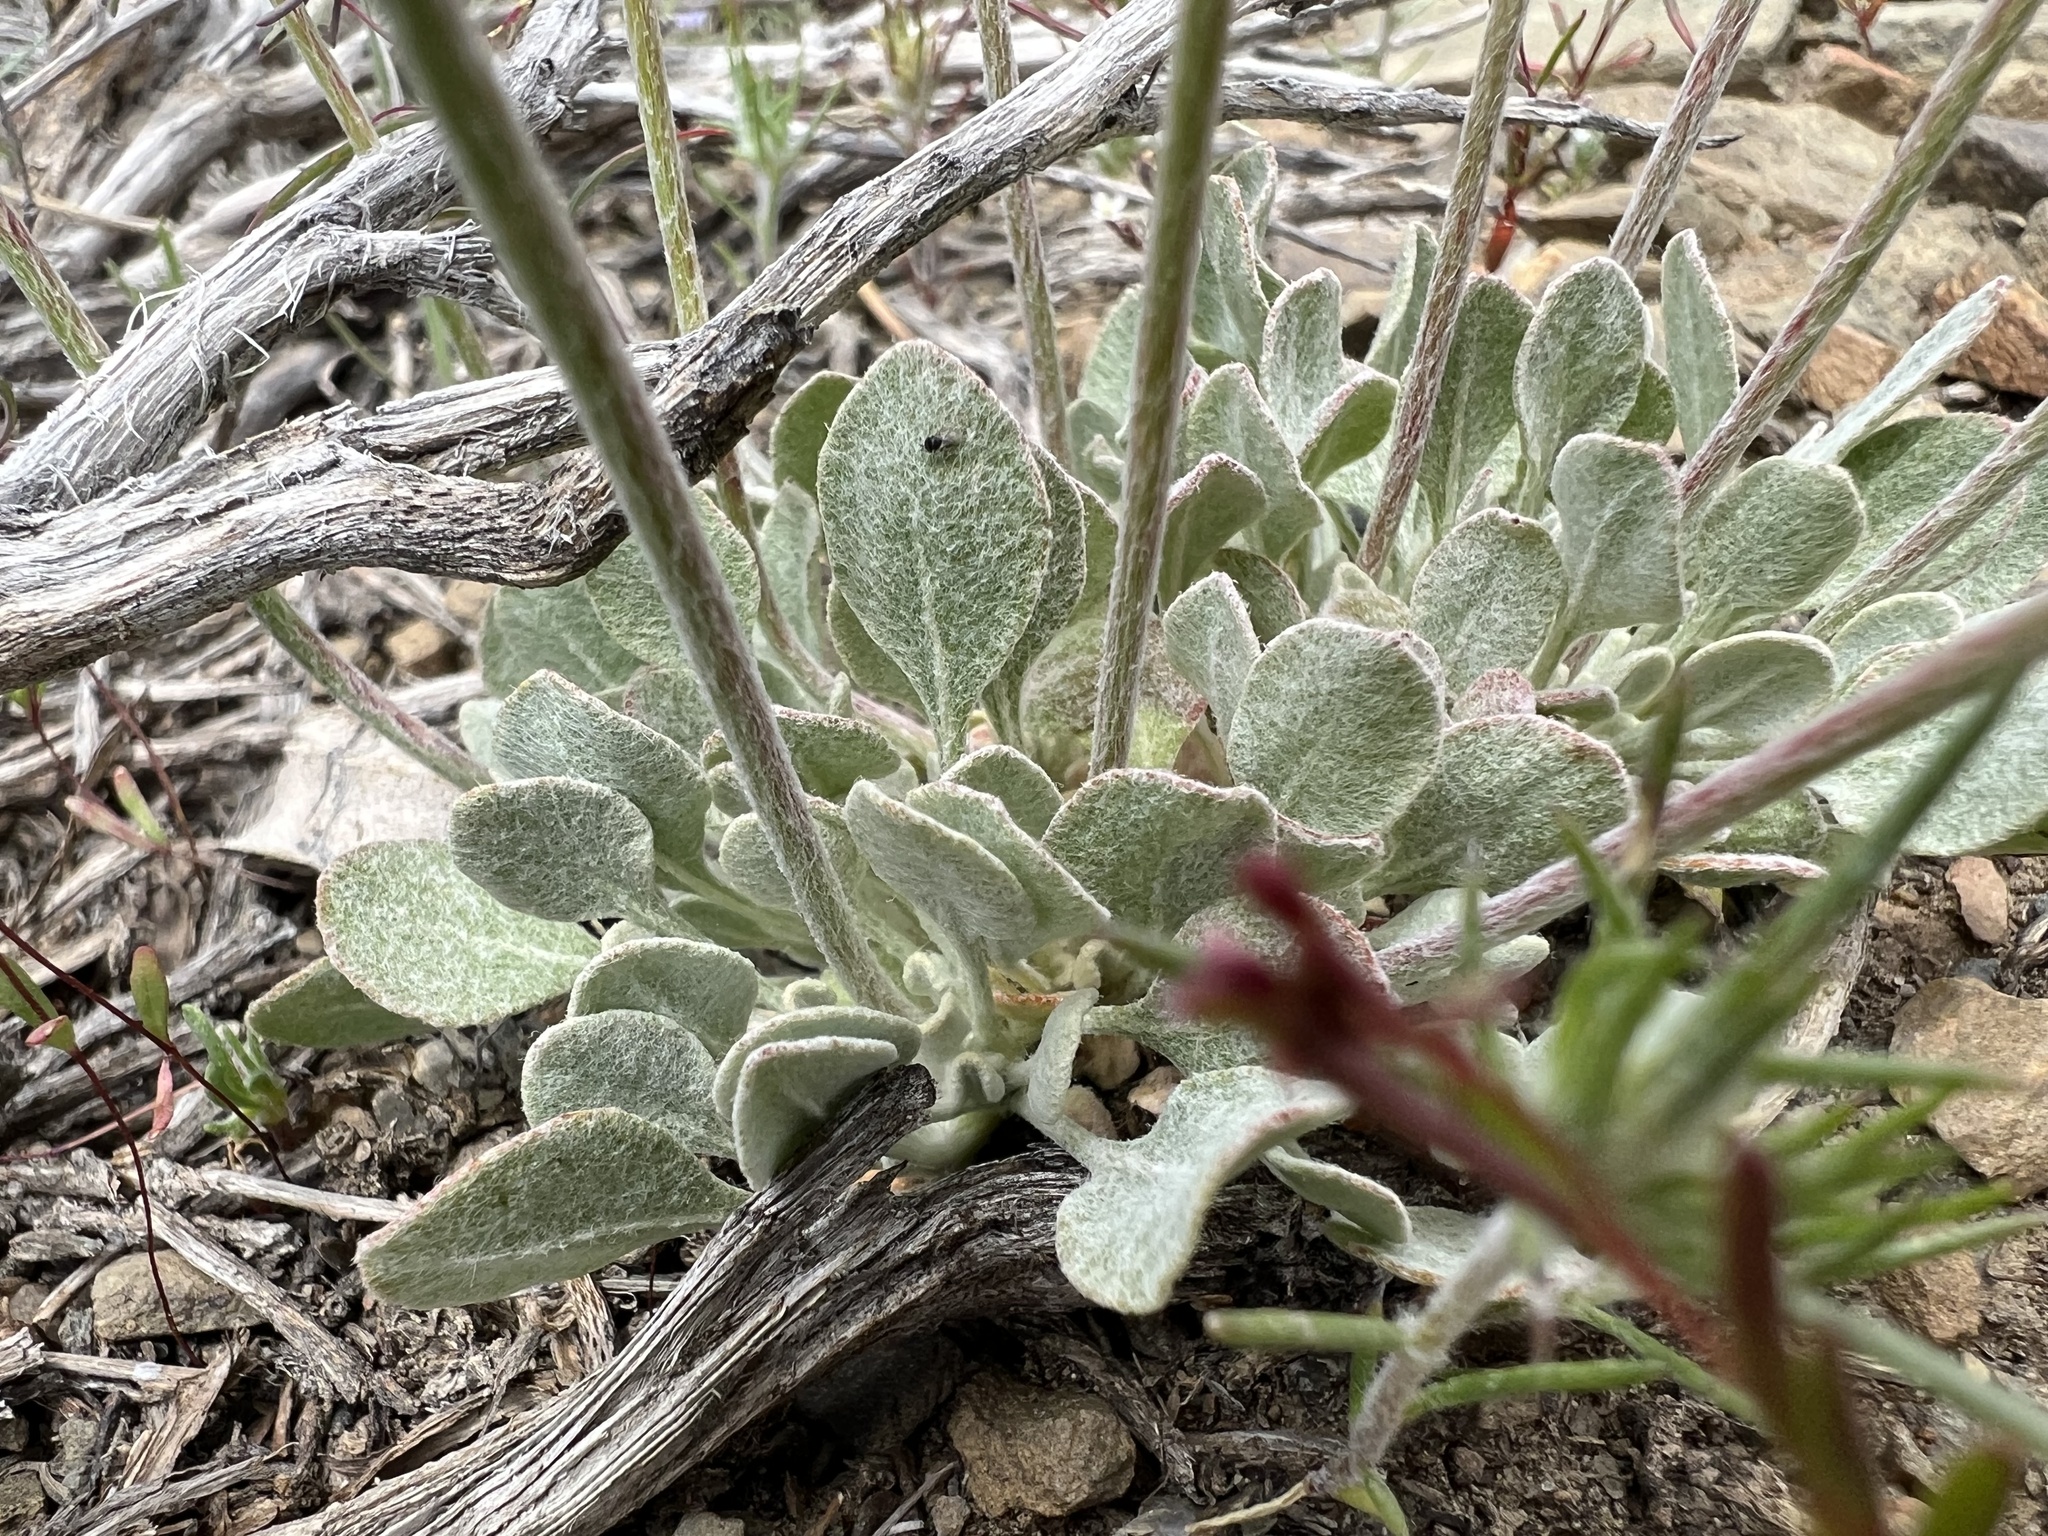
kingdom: Plantae
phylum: Tracheophyta
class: Magnoliopsida
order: Caryophyllales
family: Polygonaceae
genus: Eriogonum
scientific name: Eriogonum ovalifolium
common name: Cushion buckwheat
